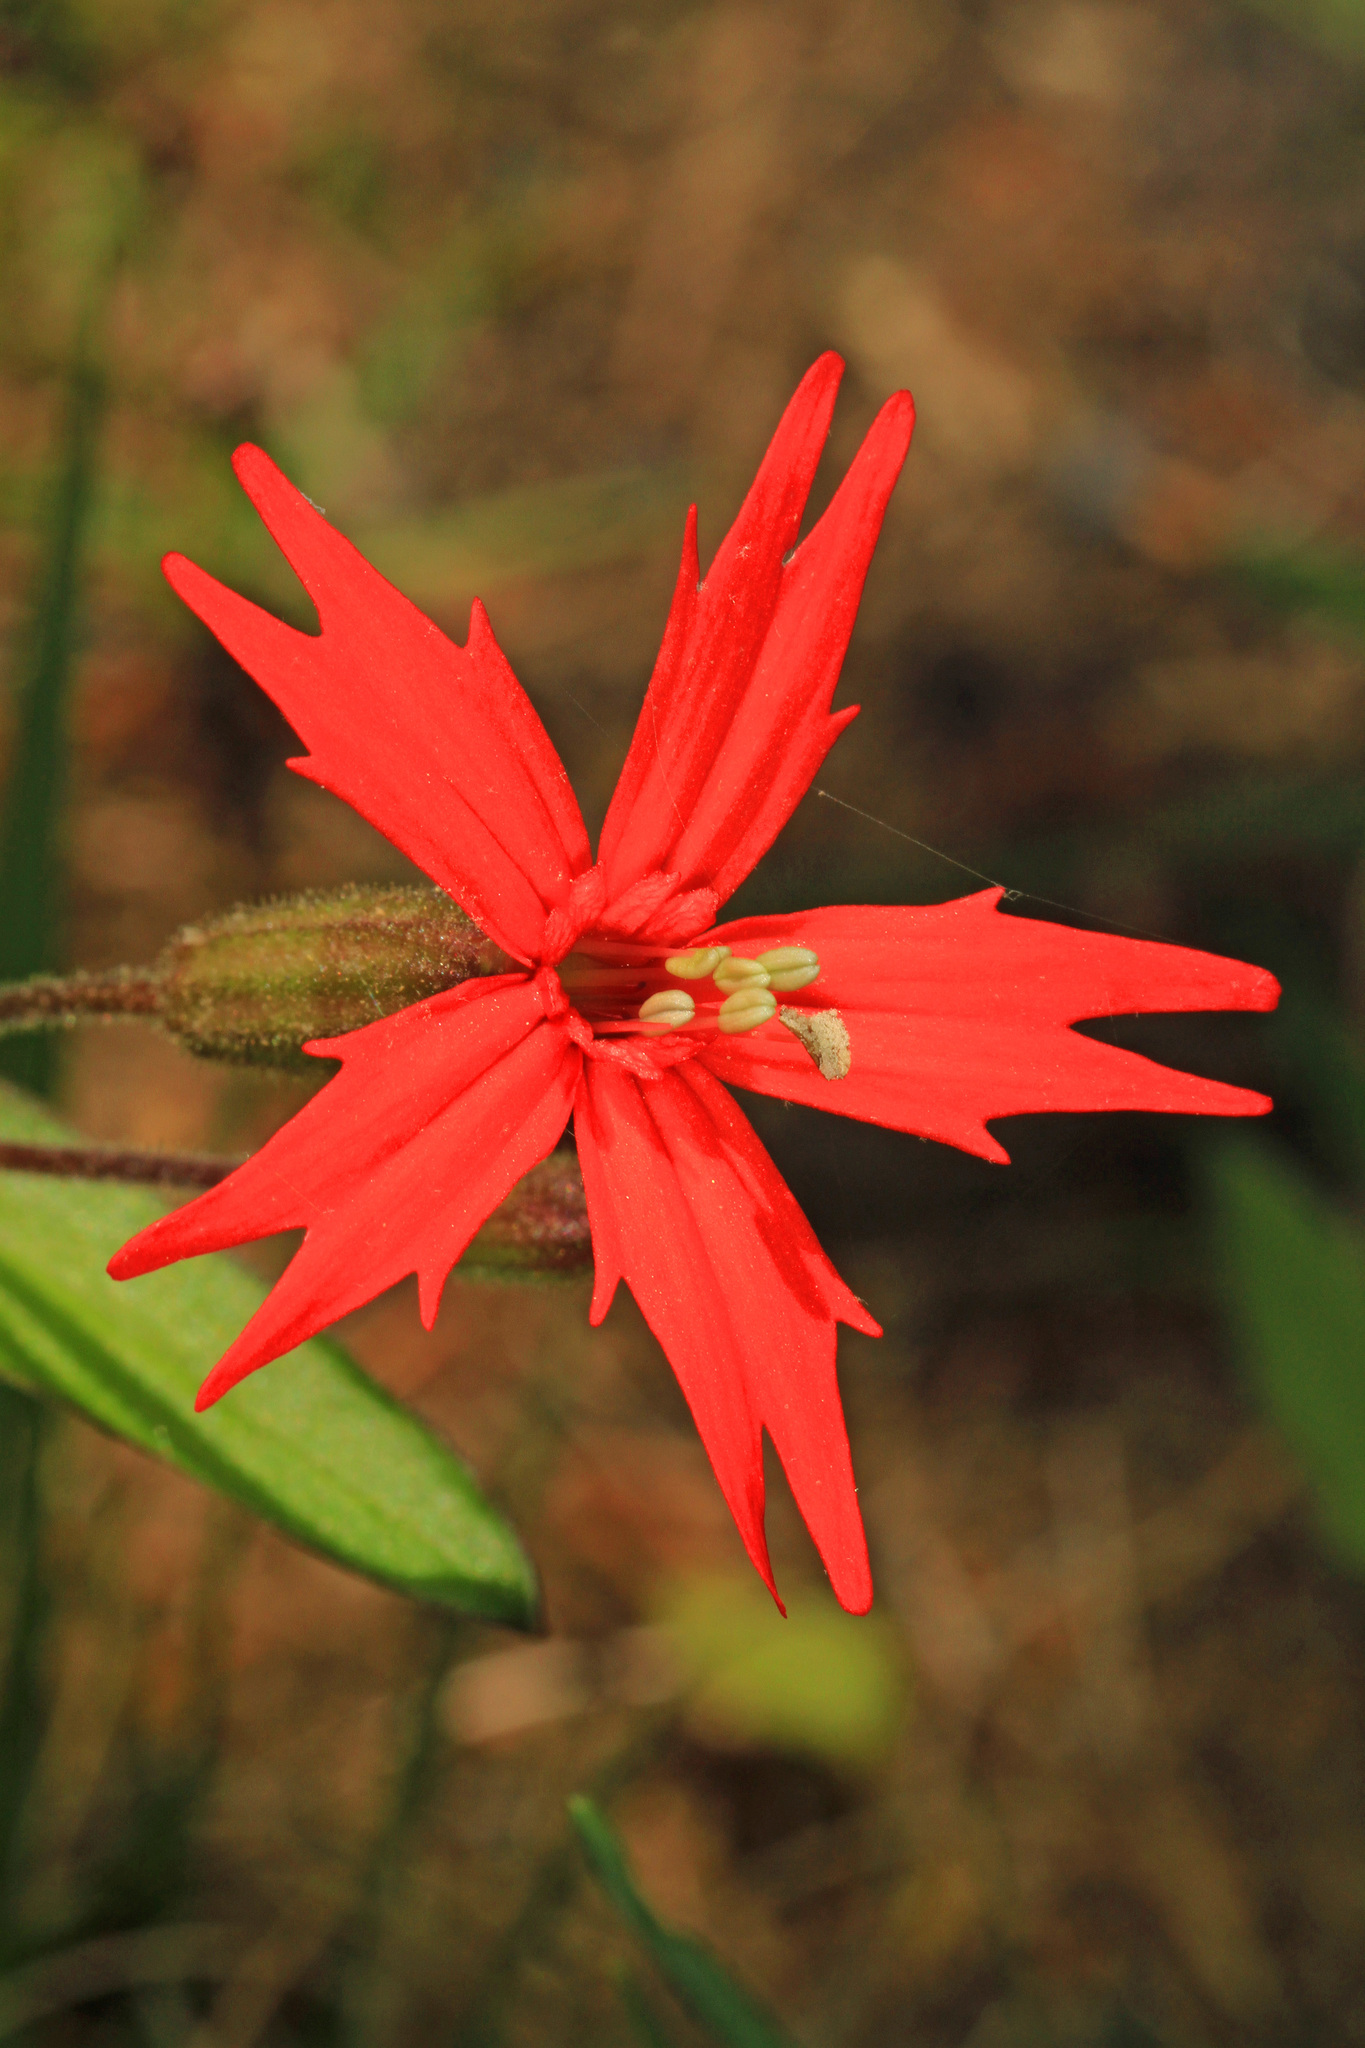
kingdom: Plantae
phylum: Tracheophyta
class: Magnoliopsida
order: Caryophyllales
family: Caryophyllaceae
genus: Silene
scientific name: Silene virginica
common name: Fire-pink
